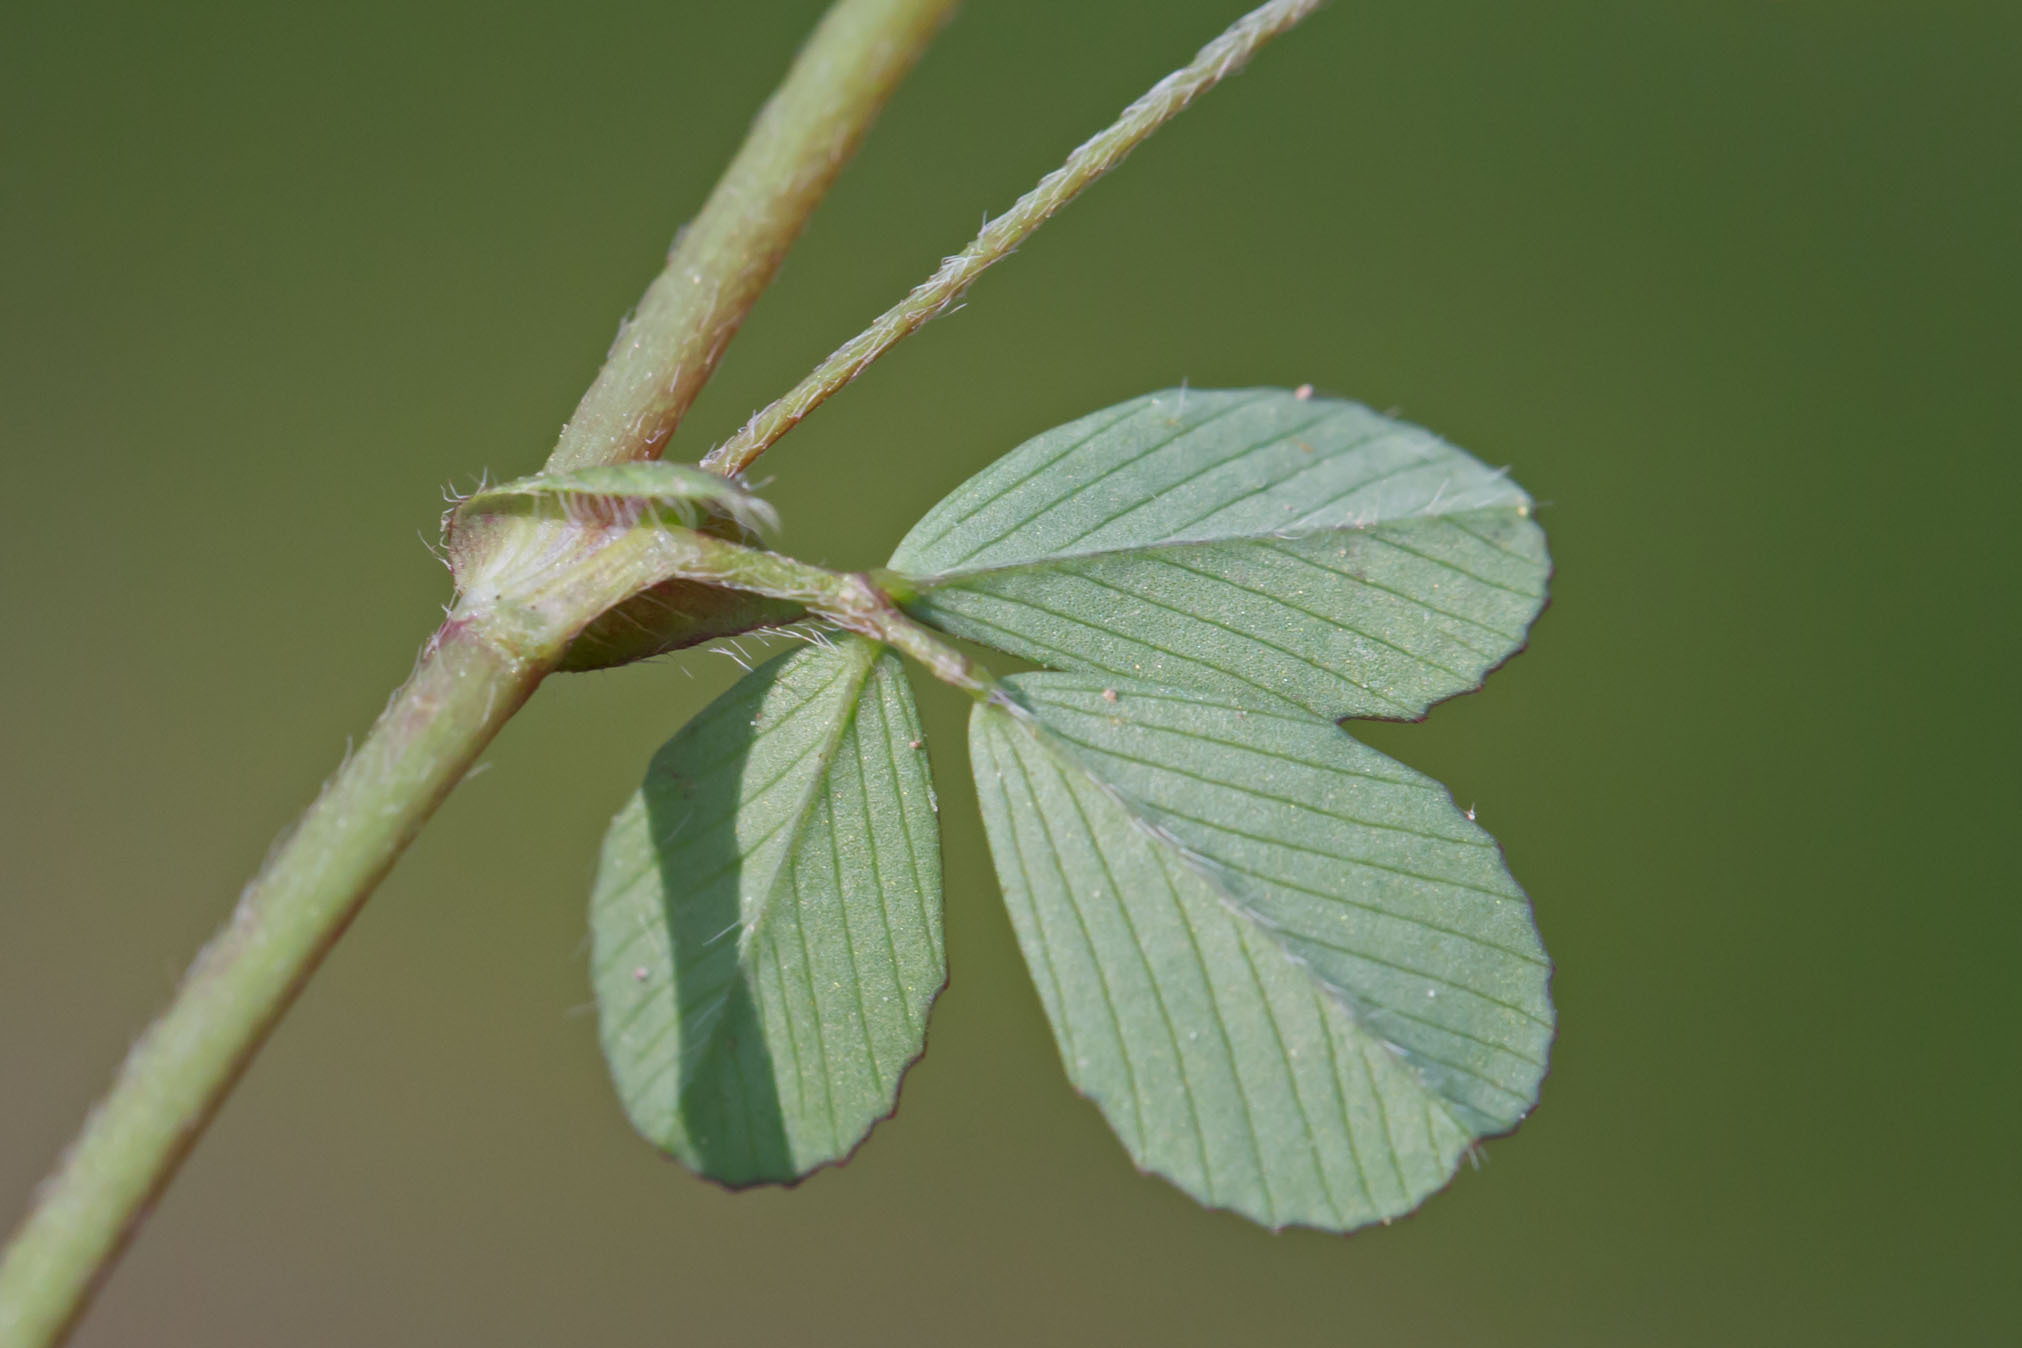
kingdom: Plantae
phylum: Tracheophyta
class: Magnoliopsida
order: Fabales
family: Fabaceae
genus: Trifolium
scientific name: Trifolium dubium
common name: Suckling clover
